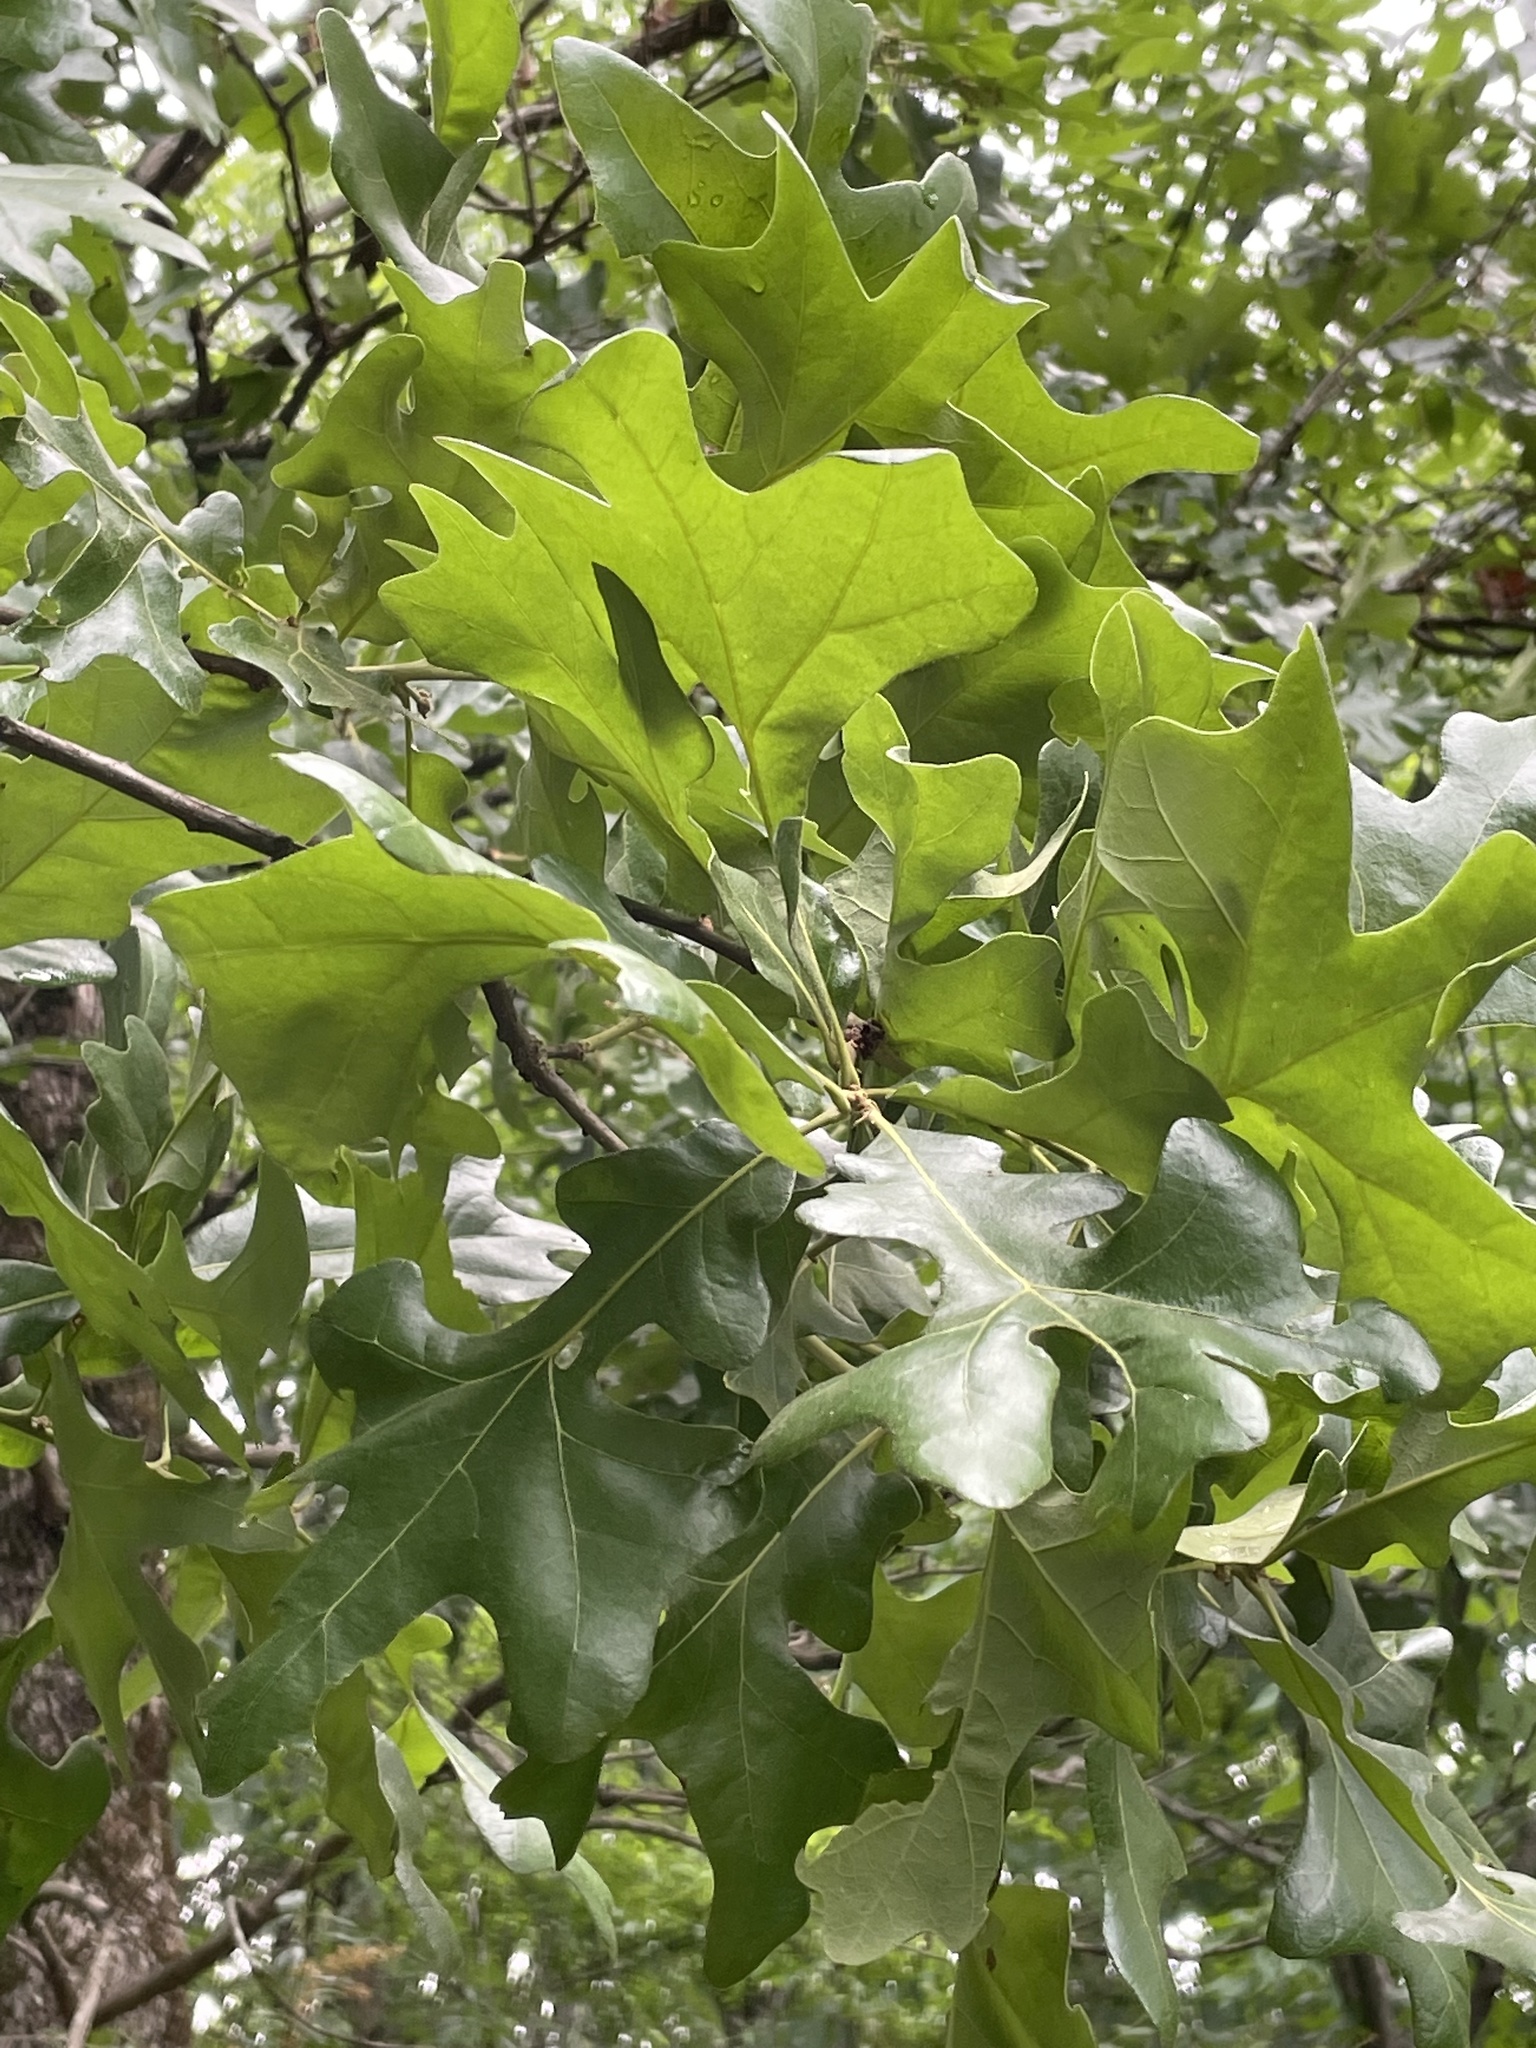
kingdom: Plantae
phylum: Tracheophyta
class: Magnoliopsida
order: Fagales
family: Fagaceae
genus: Quercus
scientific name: Quercus stellata
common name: Post oak
